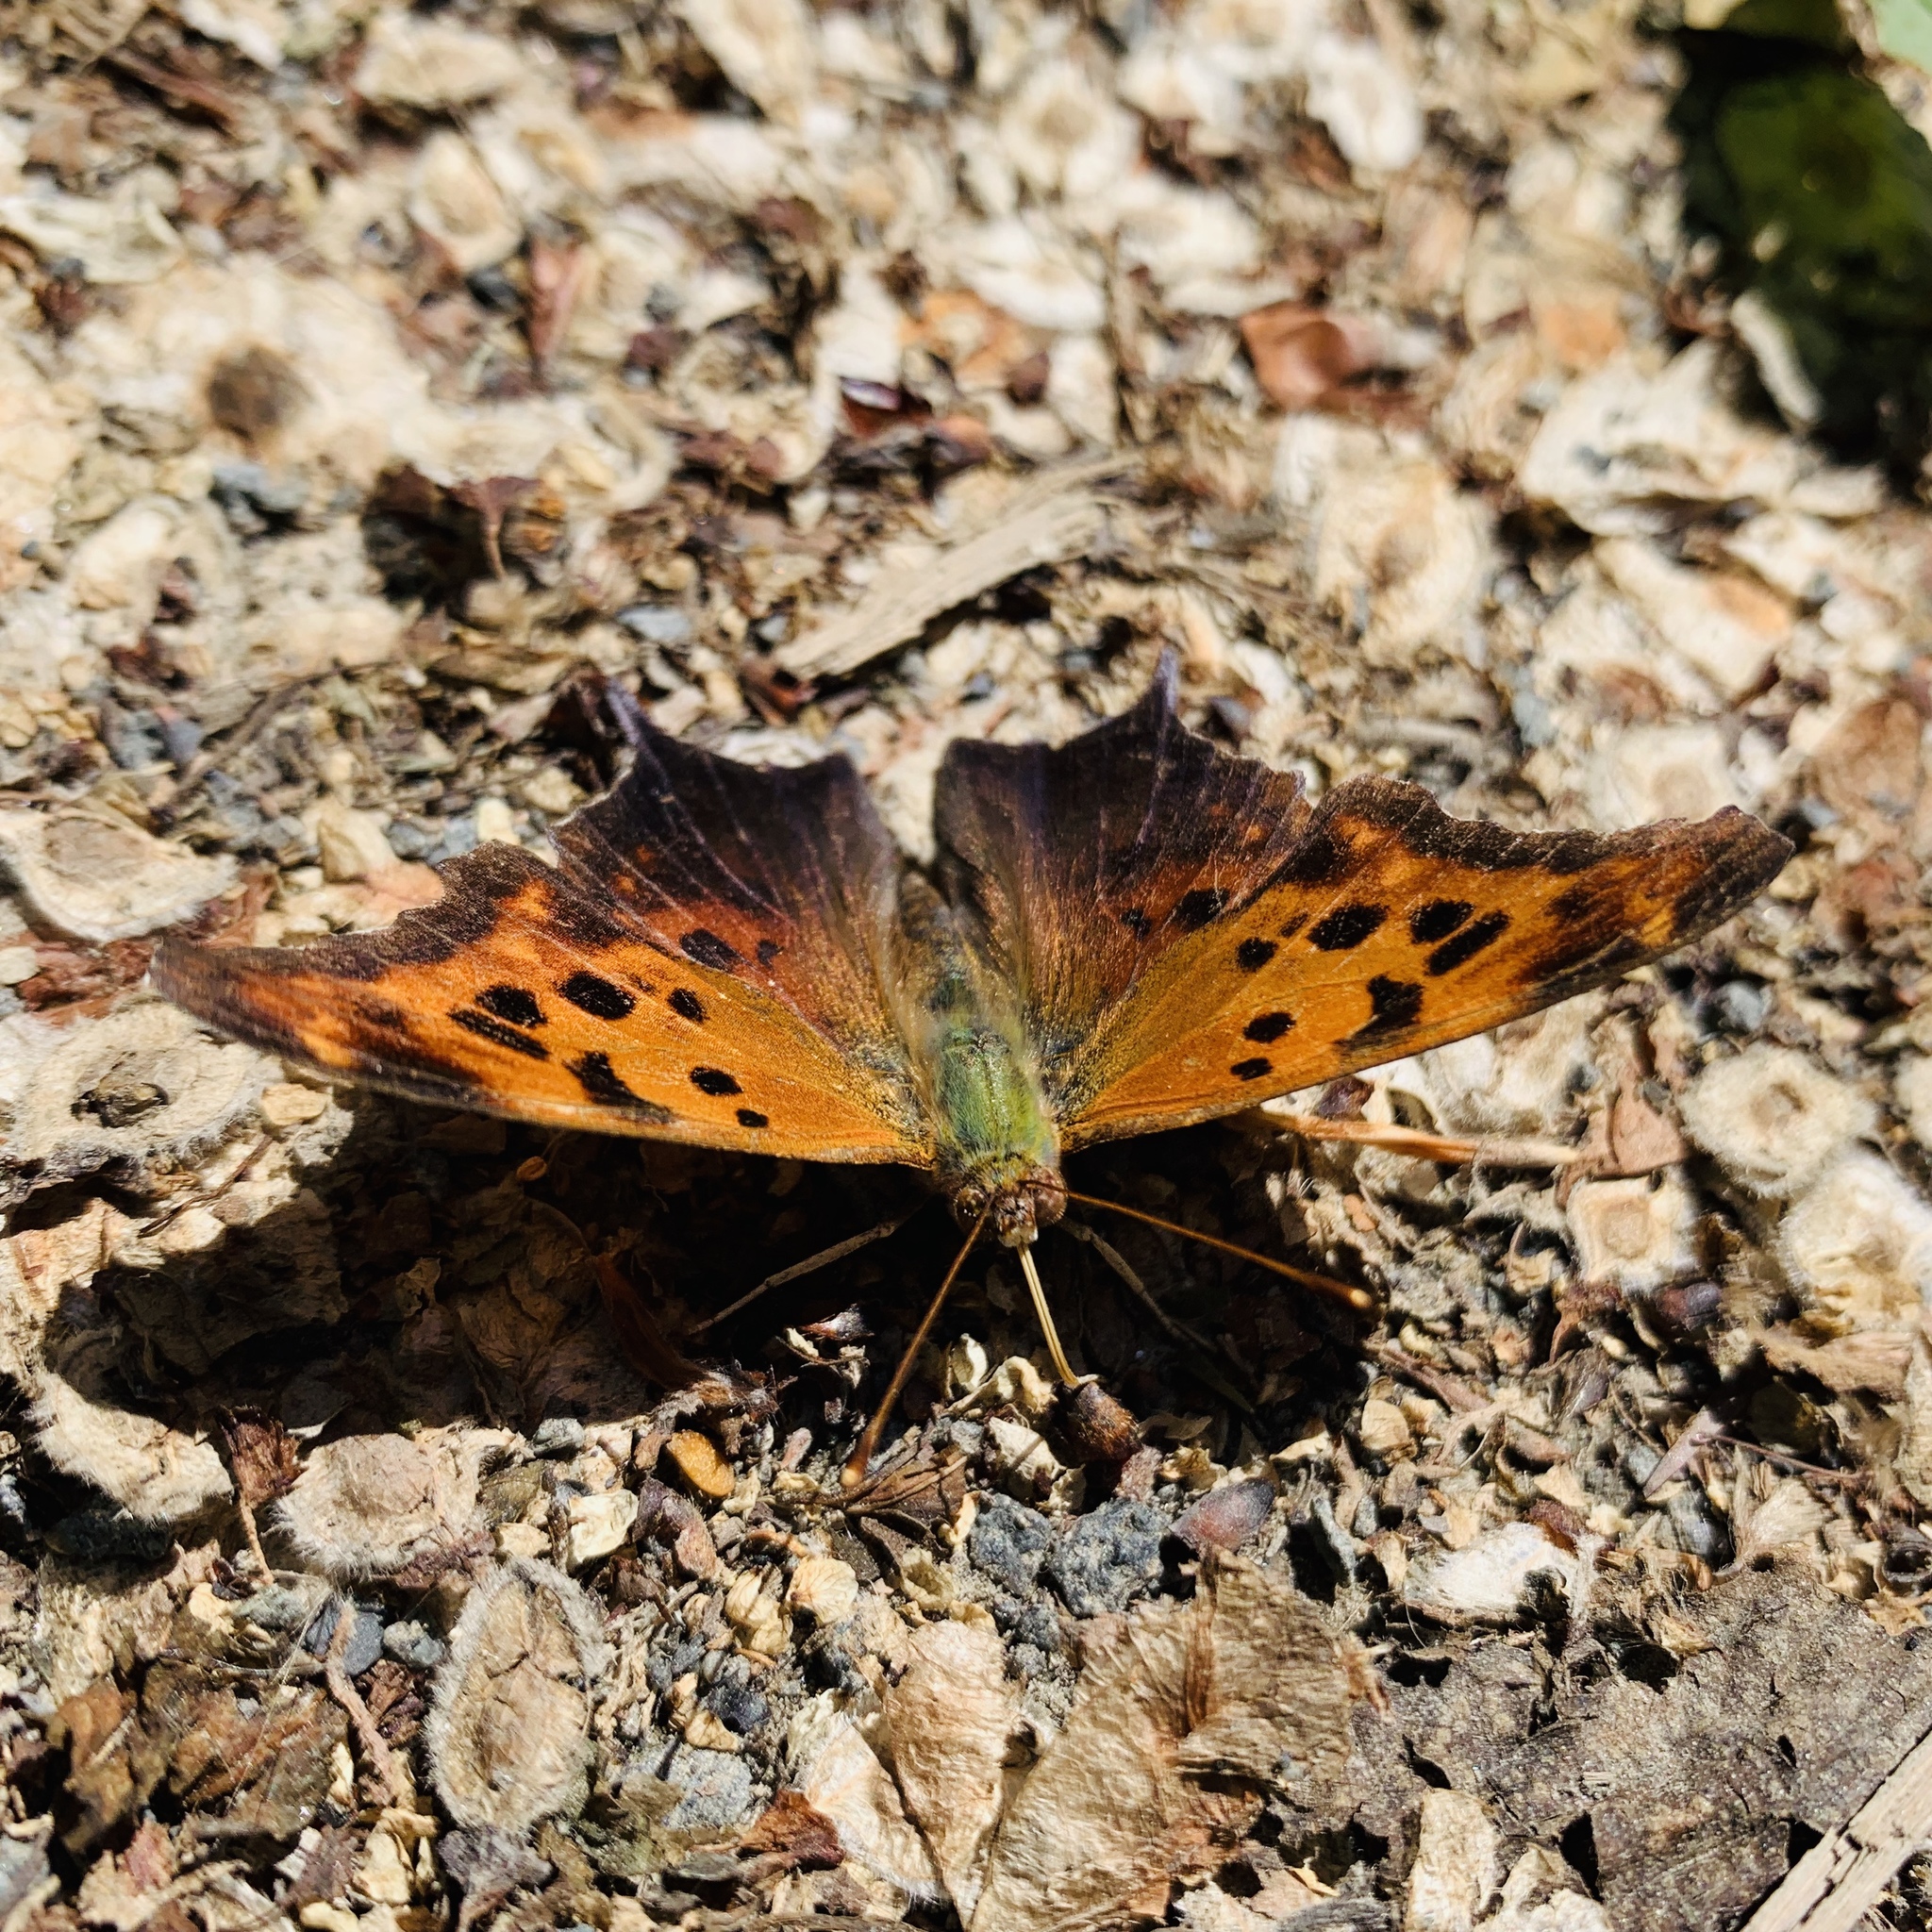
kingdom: Animalia
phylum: Arthropoda
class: Insecta
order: Lepidoptera
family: Nymphalidae
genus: Polygonia
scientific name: Polygonia interrogationis
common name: Question mark
